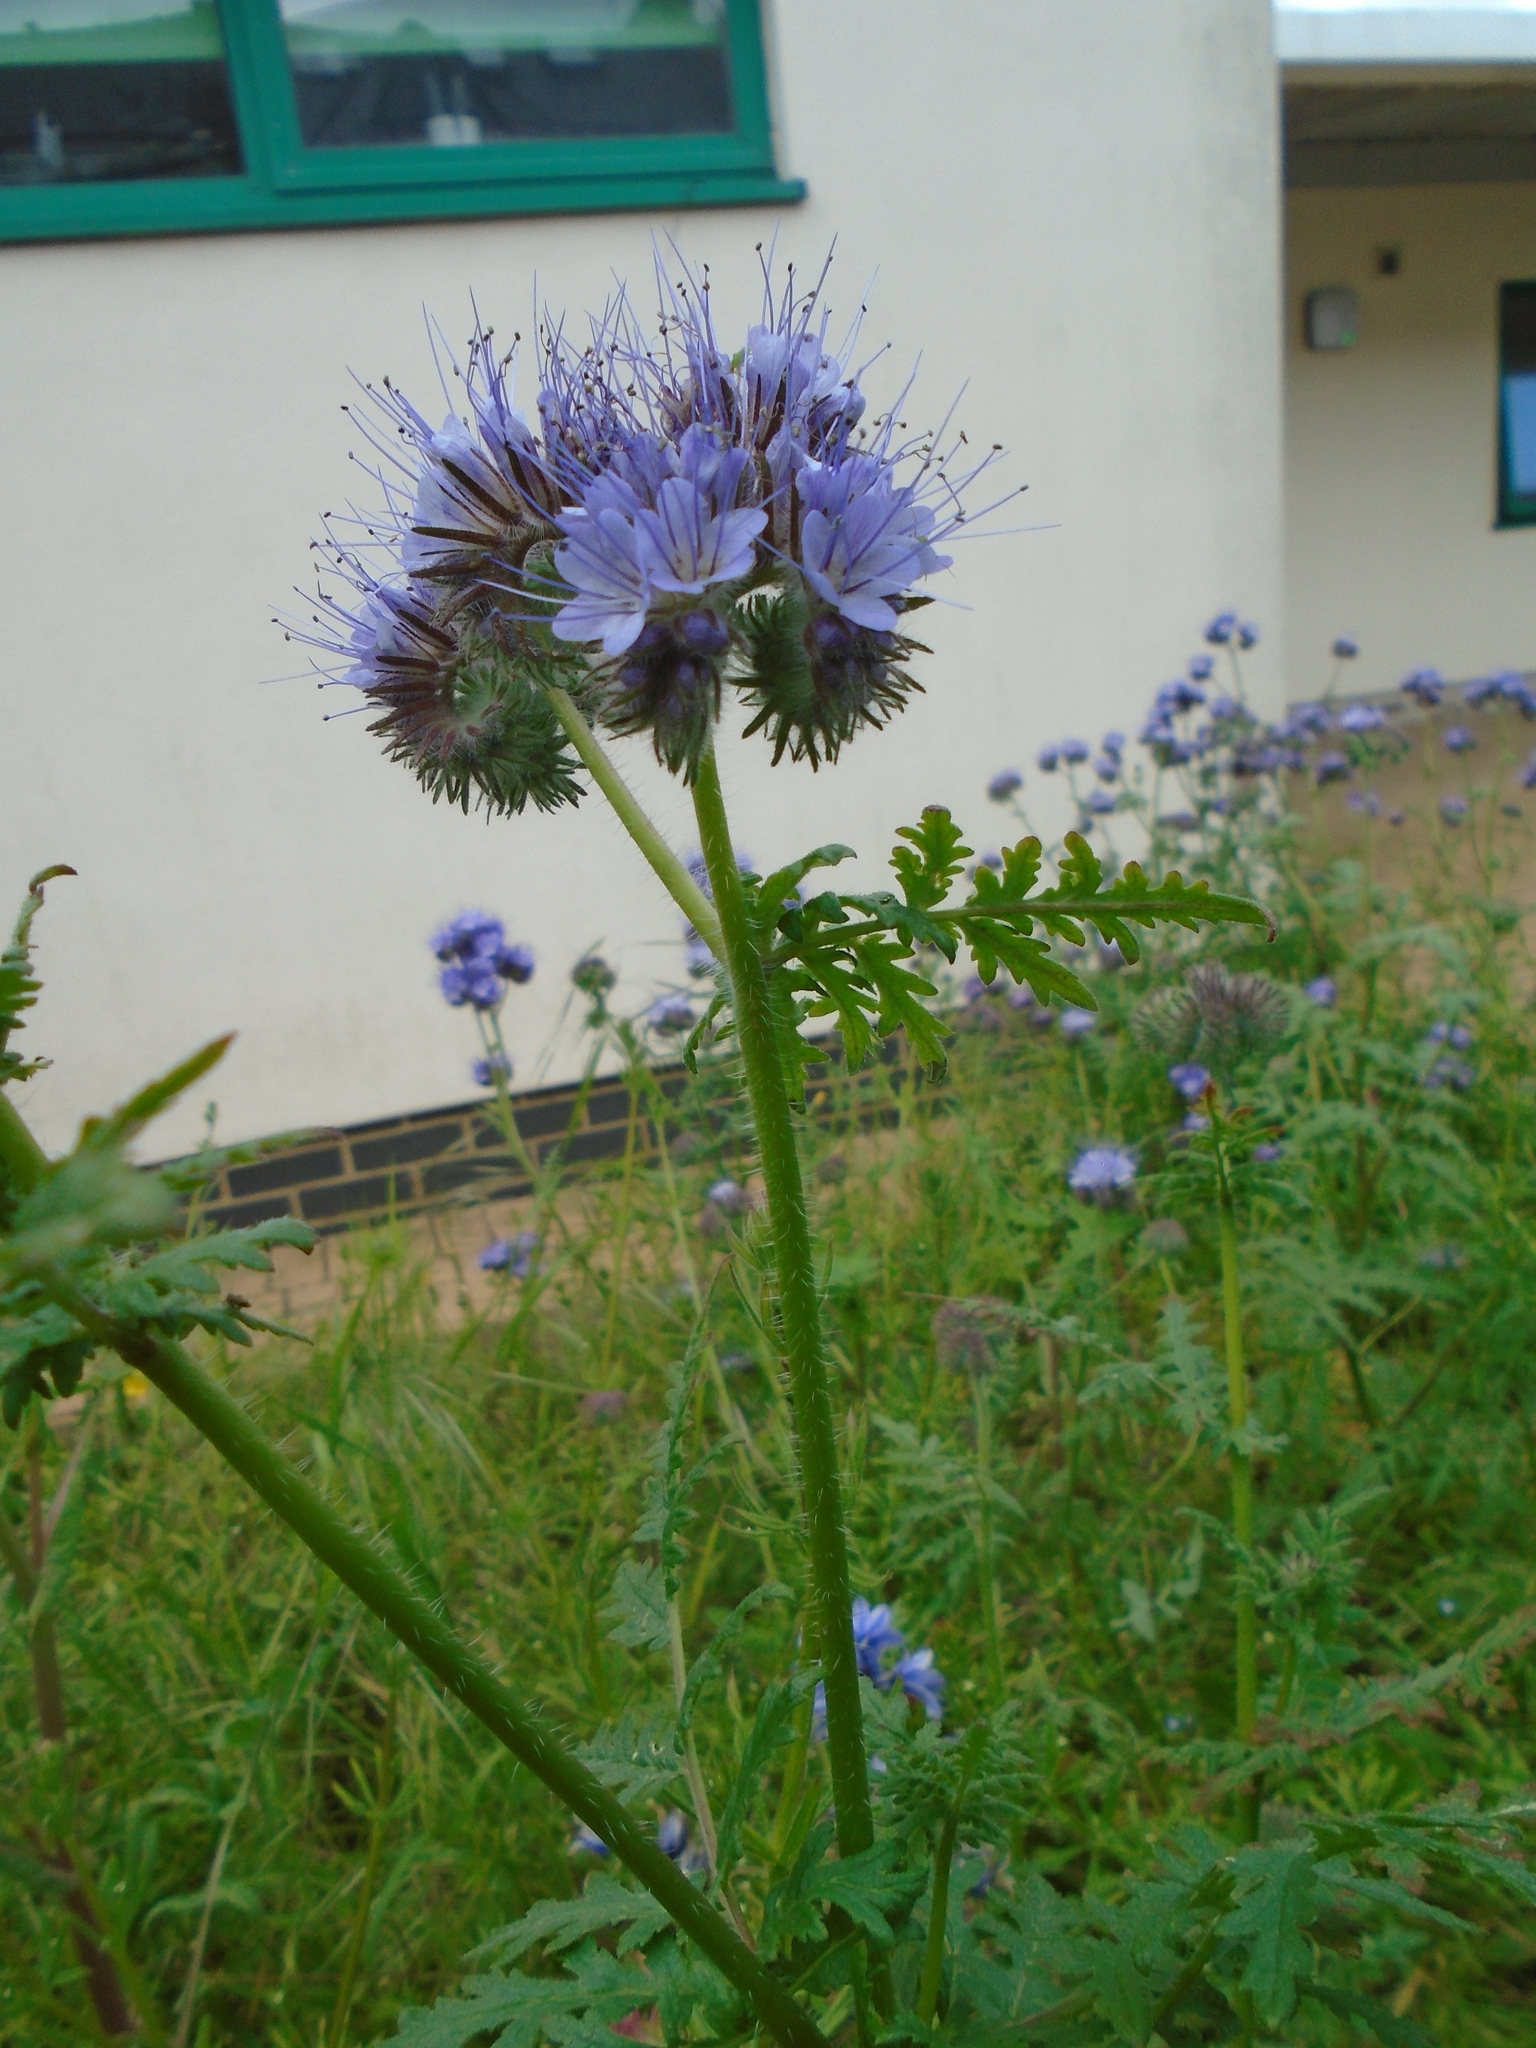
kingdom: Plantae
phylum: Tracheophyta
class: Magnoliopsida
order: Boraginales
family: Hydrophyllaceae
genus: Phacelia
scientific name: Phacelia tanacetifolia
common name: Phacelia
